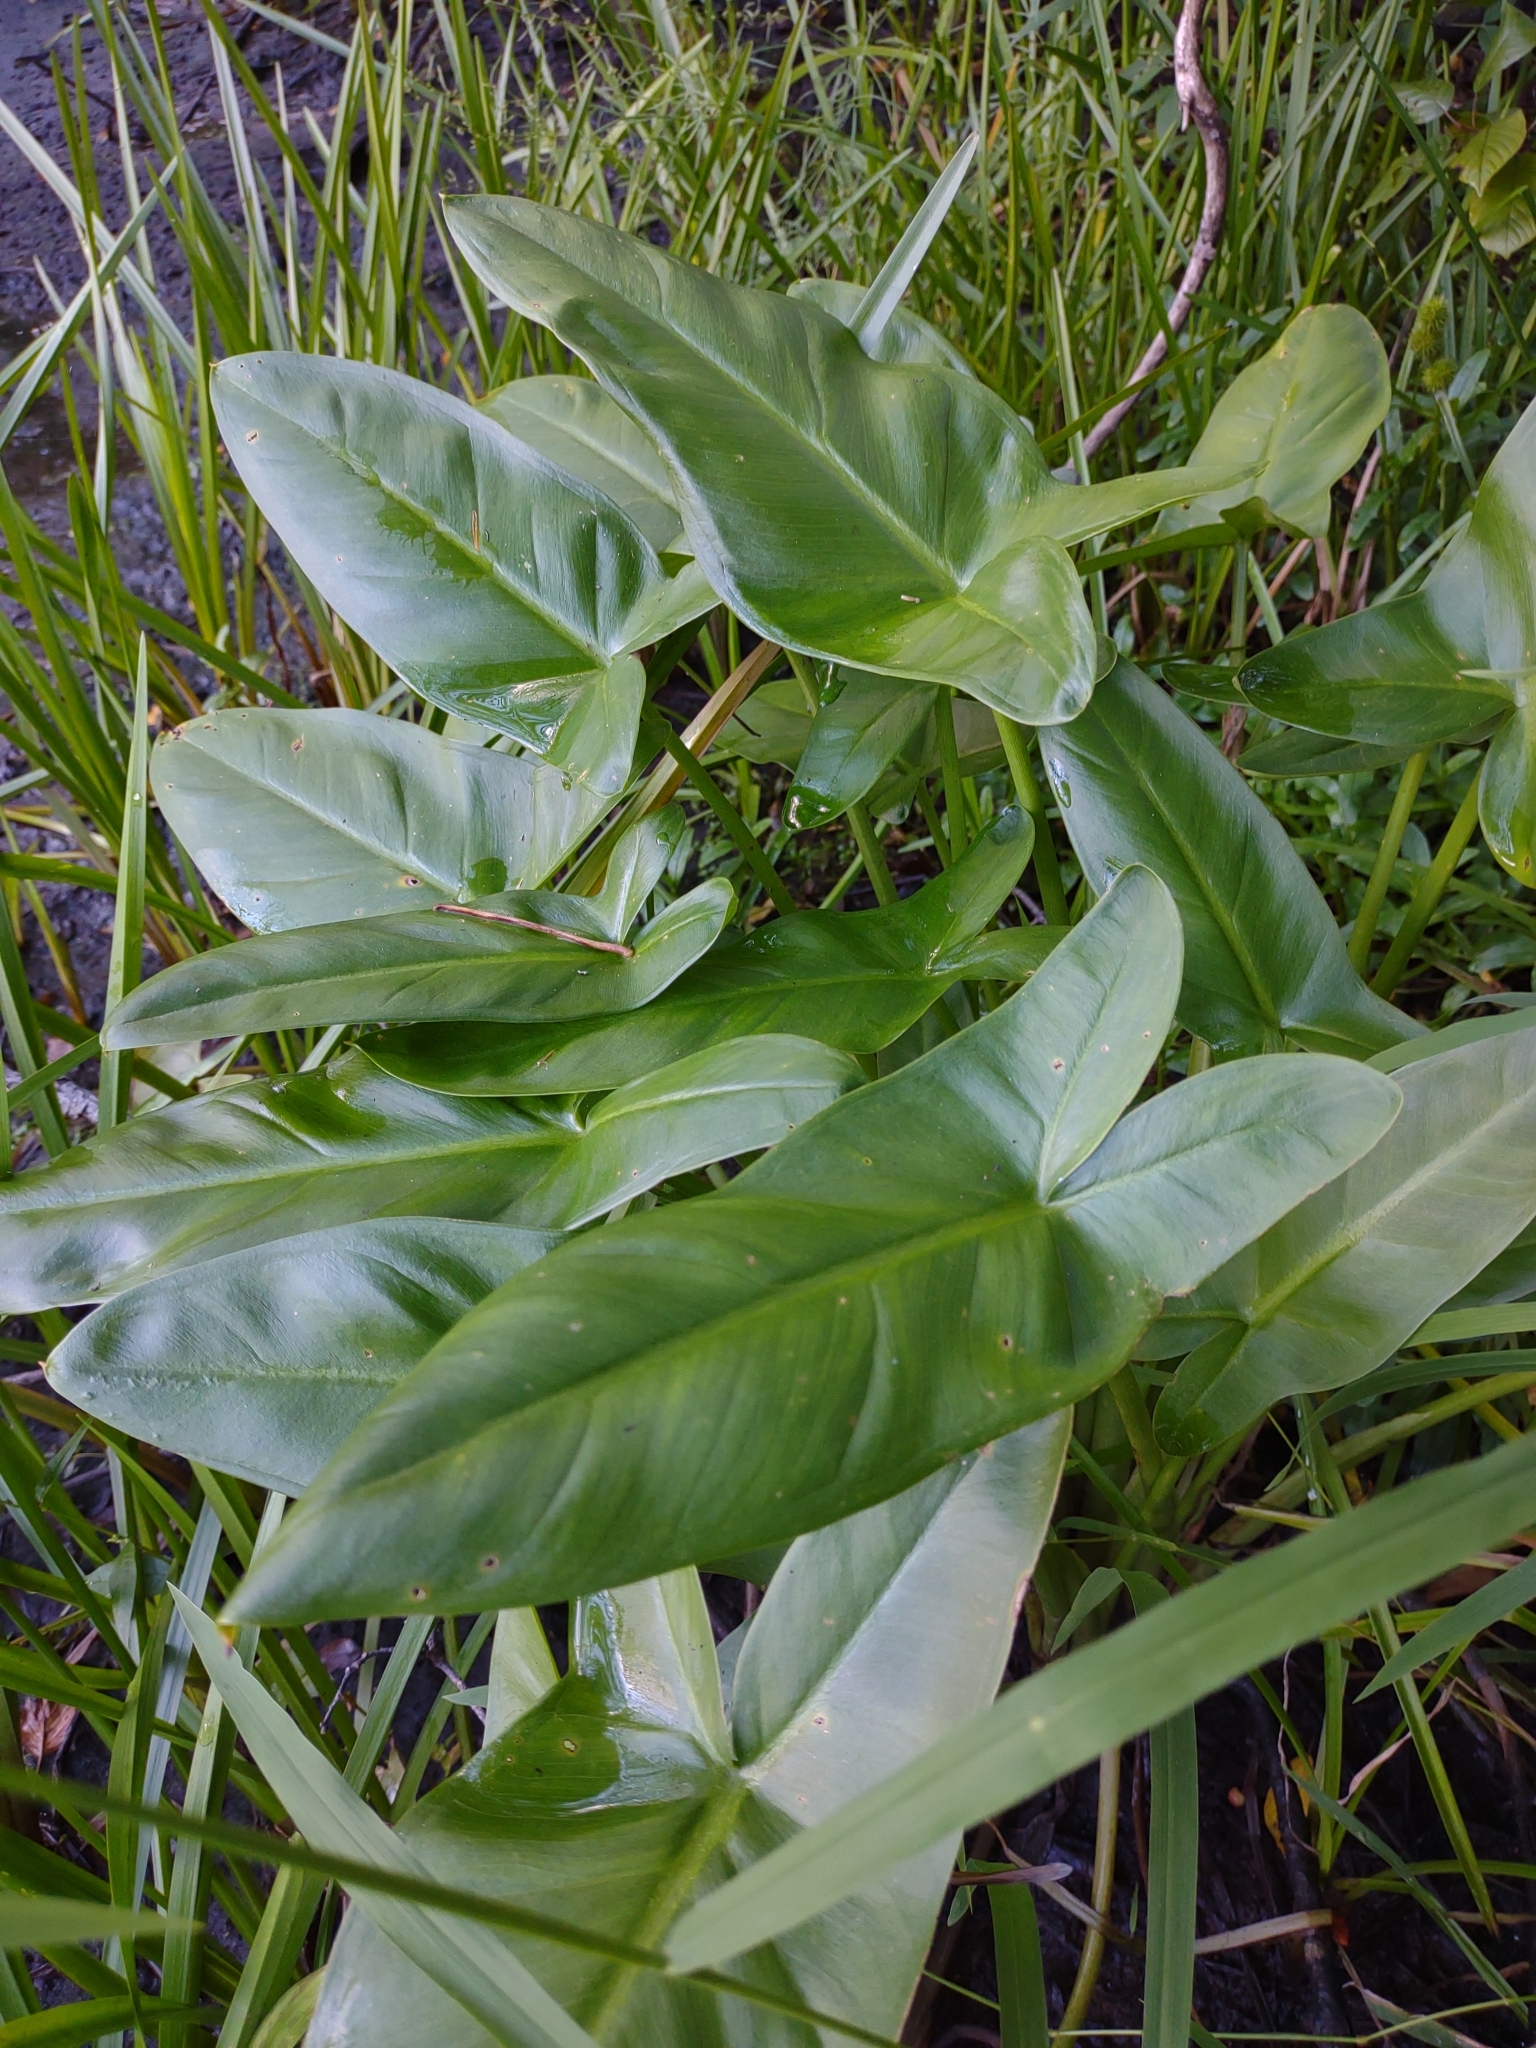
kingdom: Plantae
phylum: Tracheophyta
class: Liliopsida
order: Alismatales
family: Araceae
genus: Peltandra
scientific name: Peltandra virginica
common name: Arrow arum
